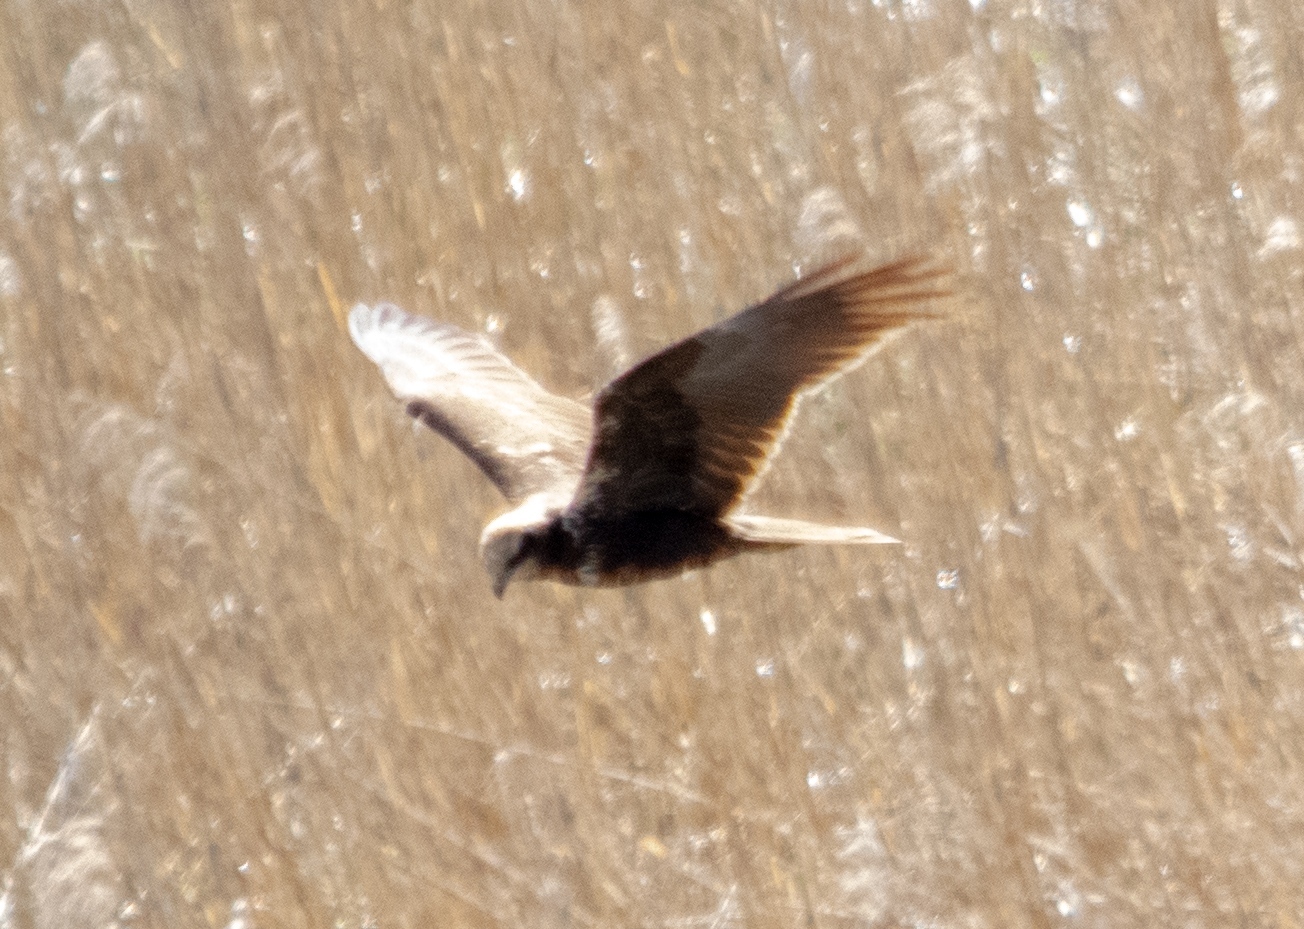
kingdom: Animalia
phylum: Chordata
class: Aves
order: Accipitriformes
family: Accipitridae
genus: Circus
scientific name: Circus aeruginosus
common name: Western marsh harrier
